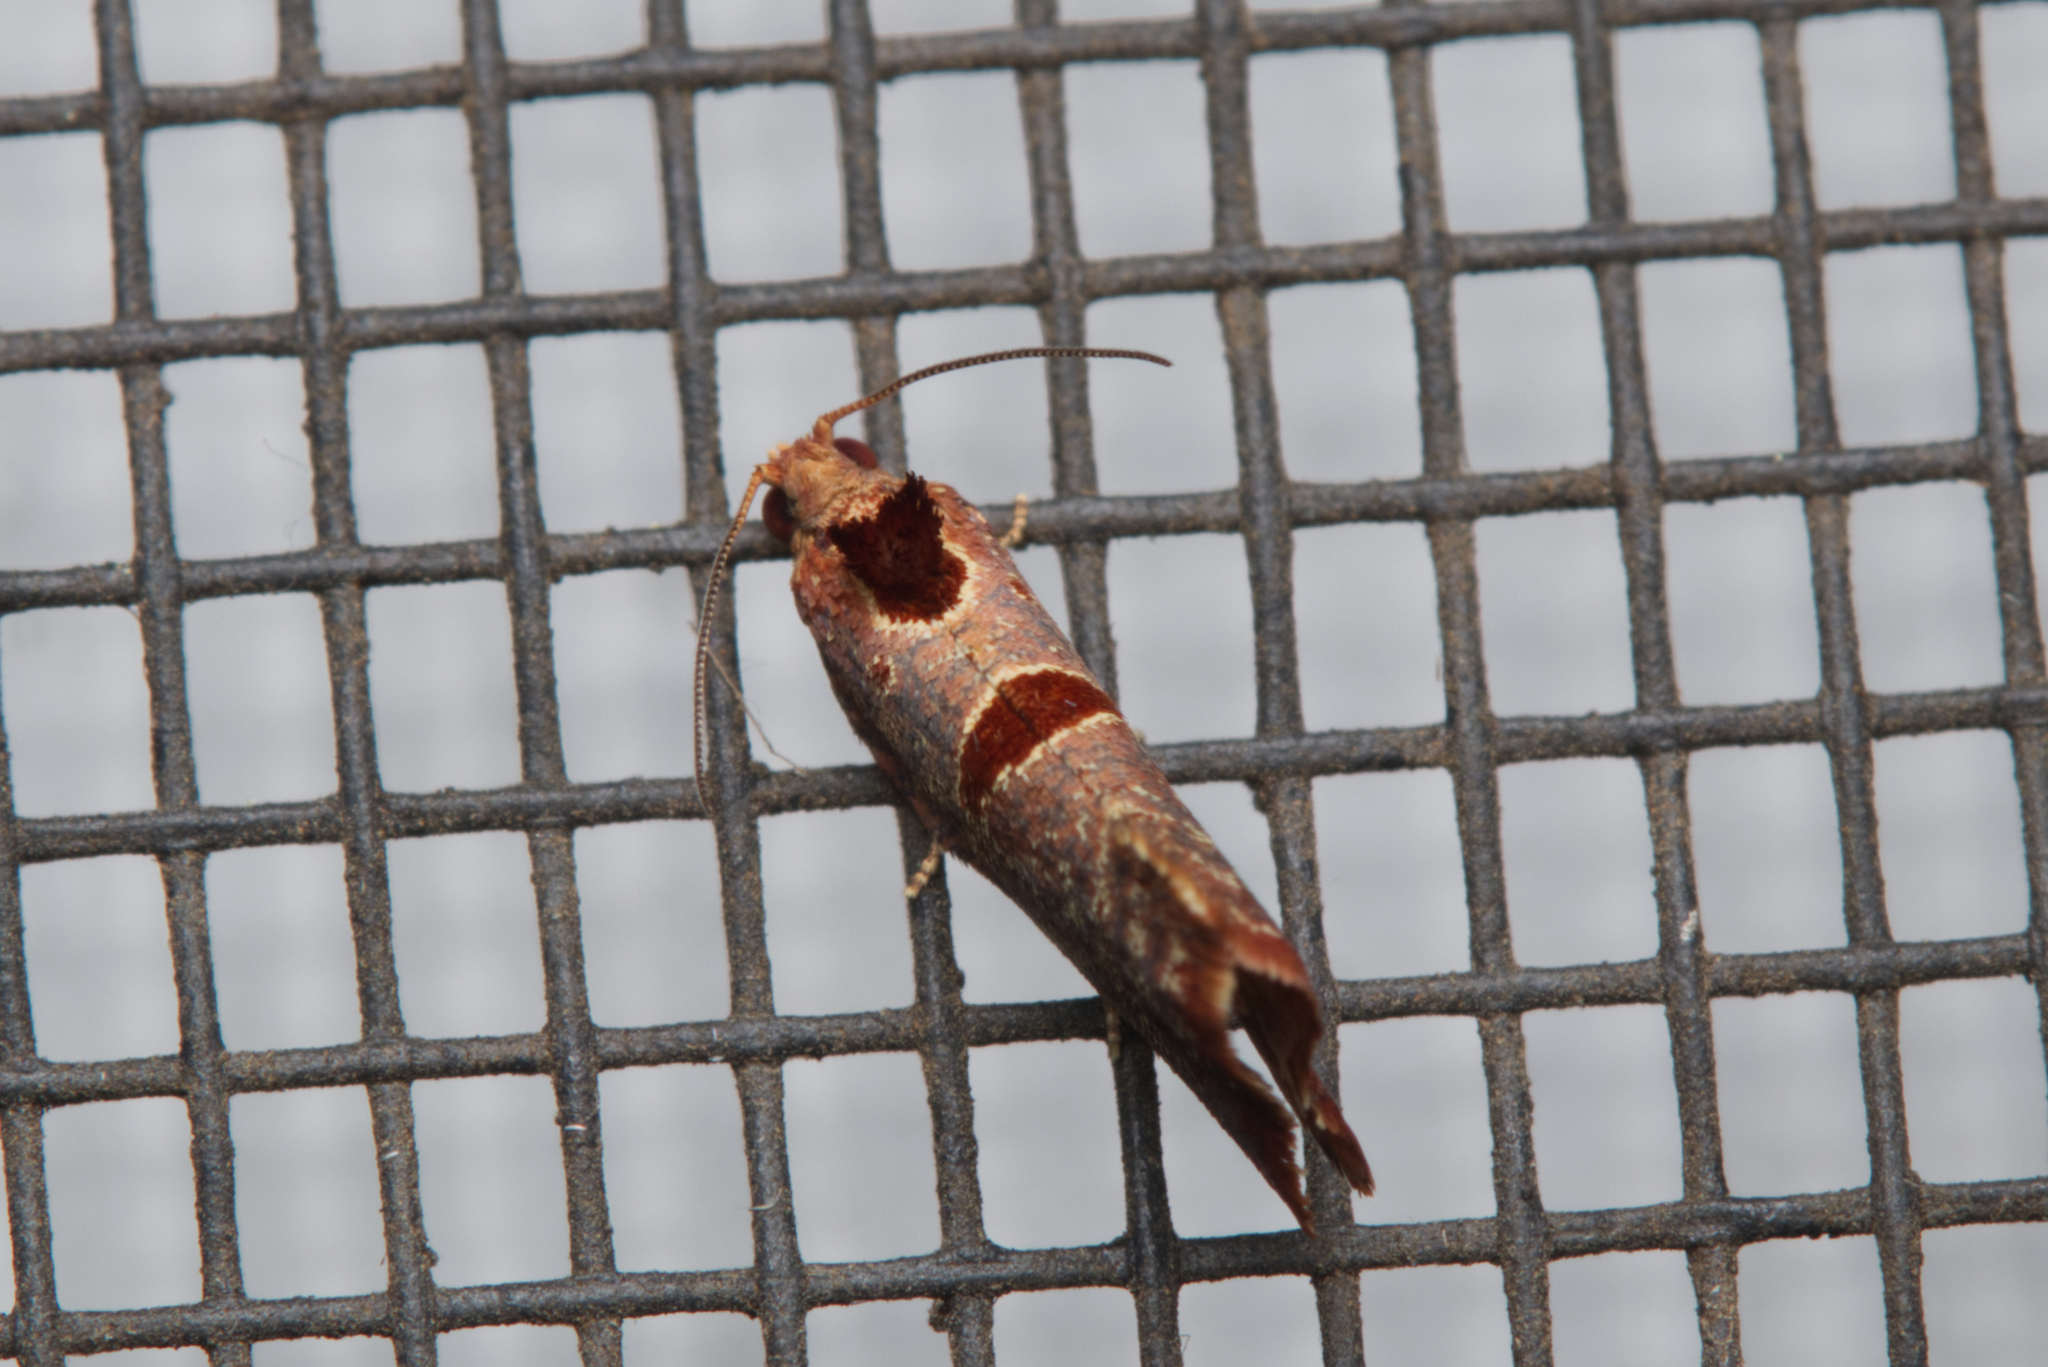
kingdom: Animalia
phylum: Arthropoda
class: Insecta
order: Lepidoptera
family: Tortricidae
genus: Glyphidoptera
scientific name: Glyphidoptera insignana
